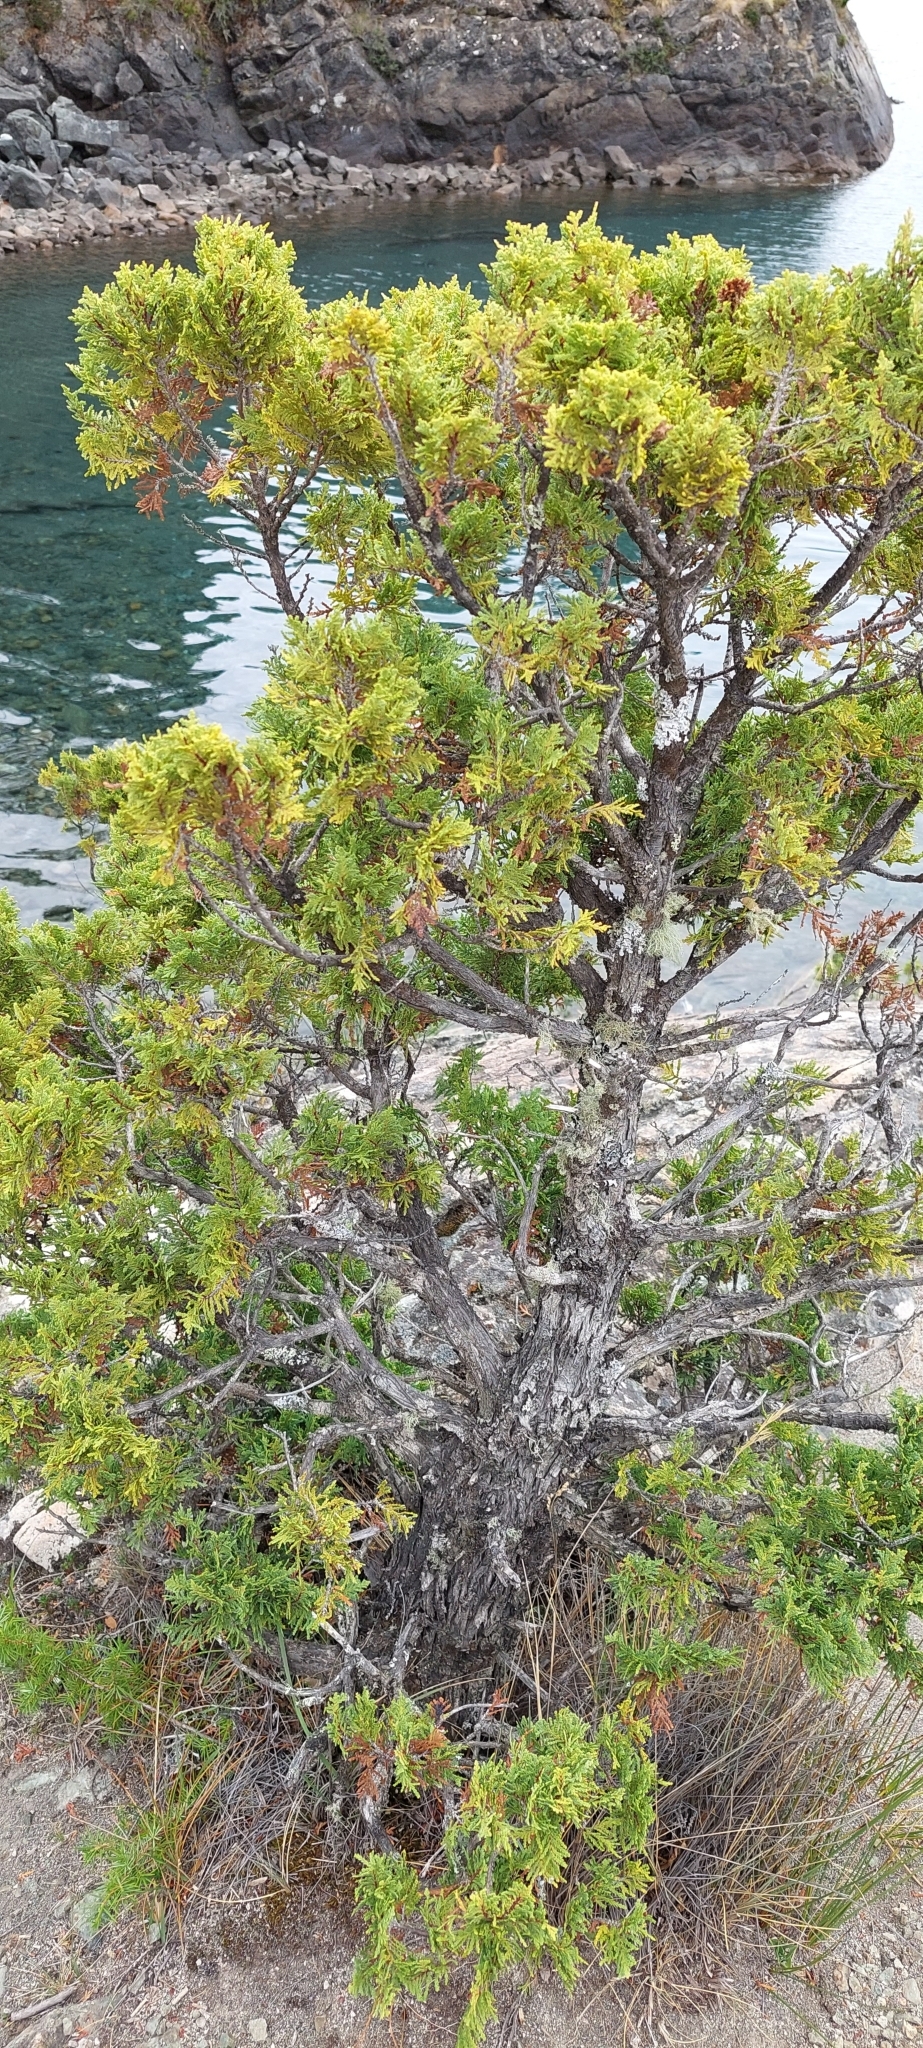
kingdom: Plantae
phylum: Tracheophyta
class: Pinopsida
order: Pinales
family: Cupressaceae
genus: Austrocedrus
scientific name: Austrocedrus chilensis
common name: Chilean incense-cedar
